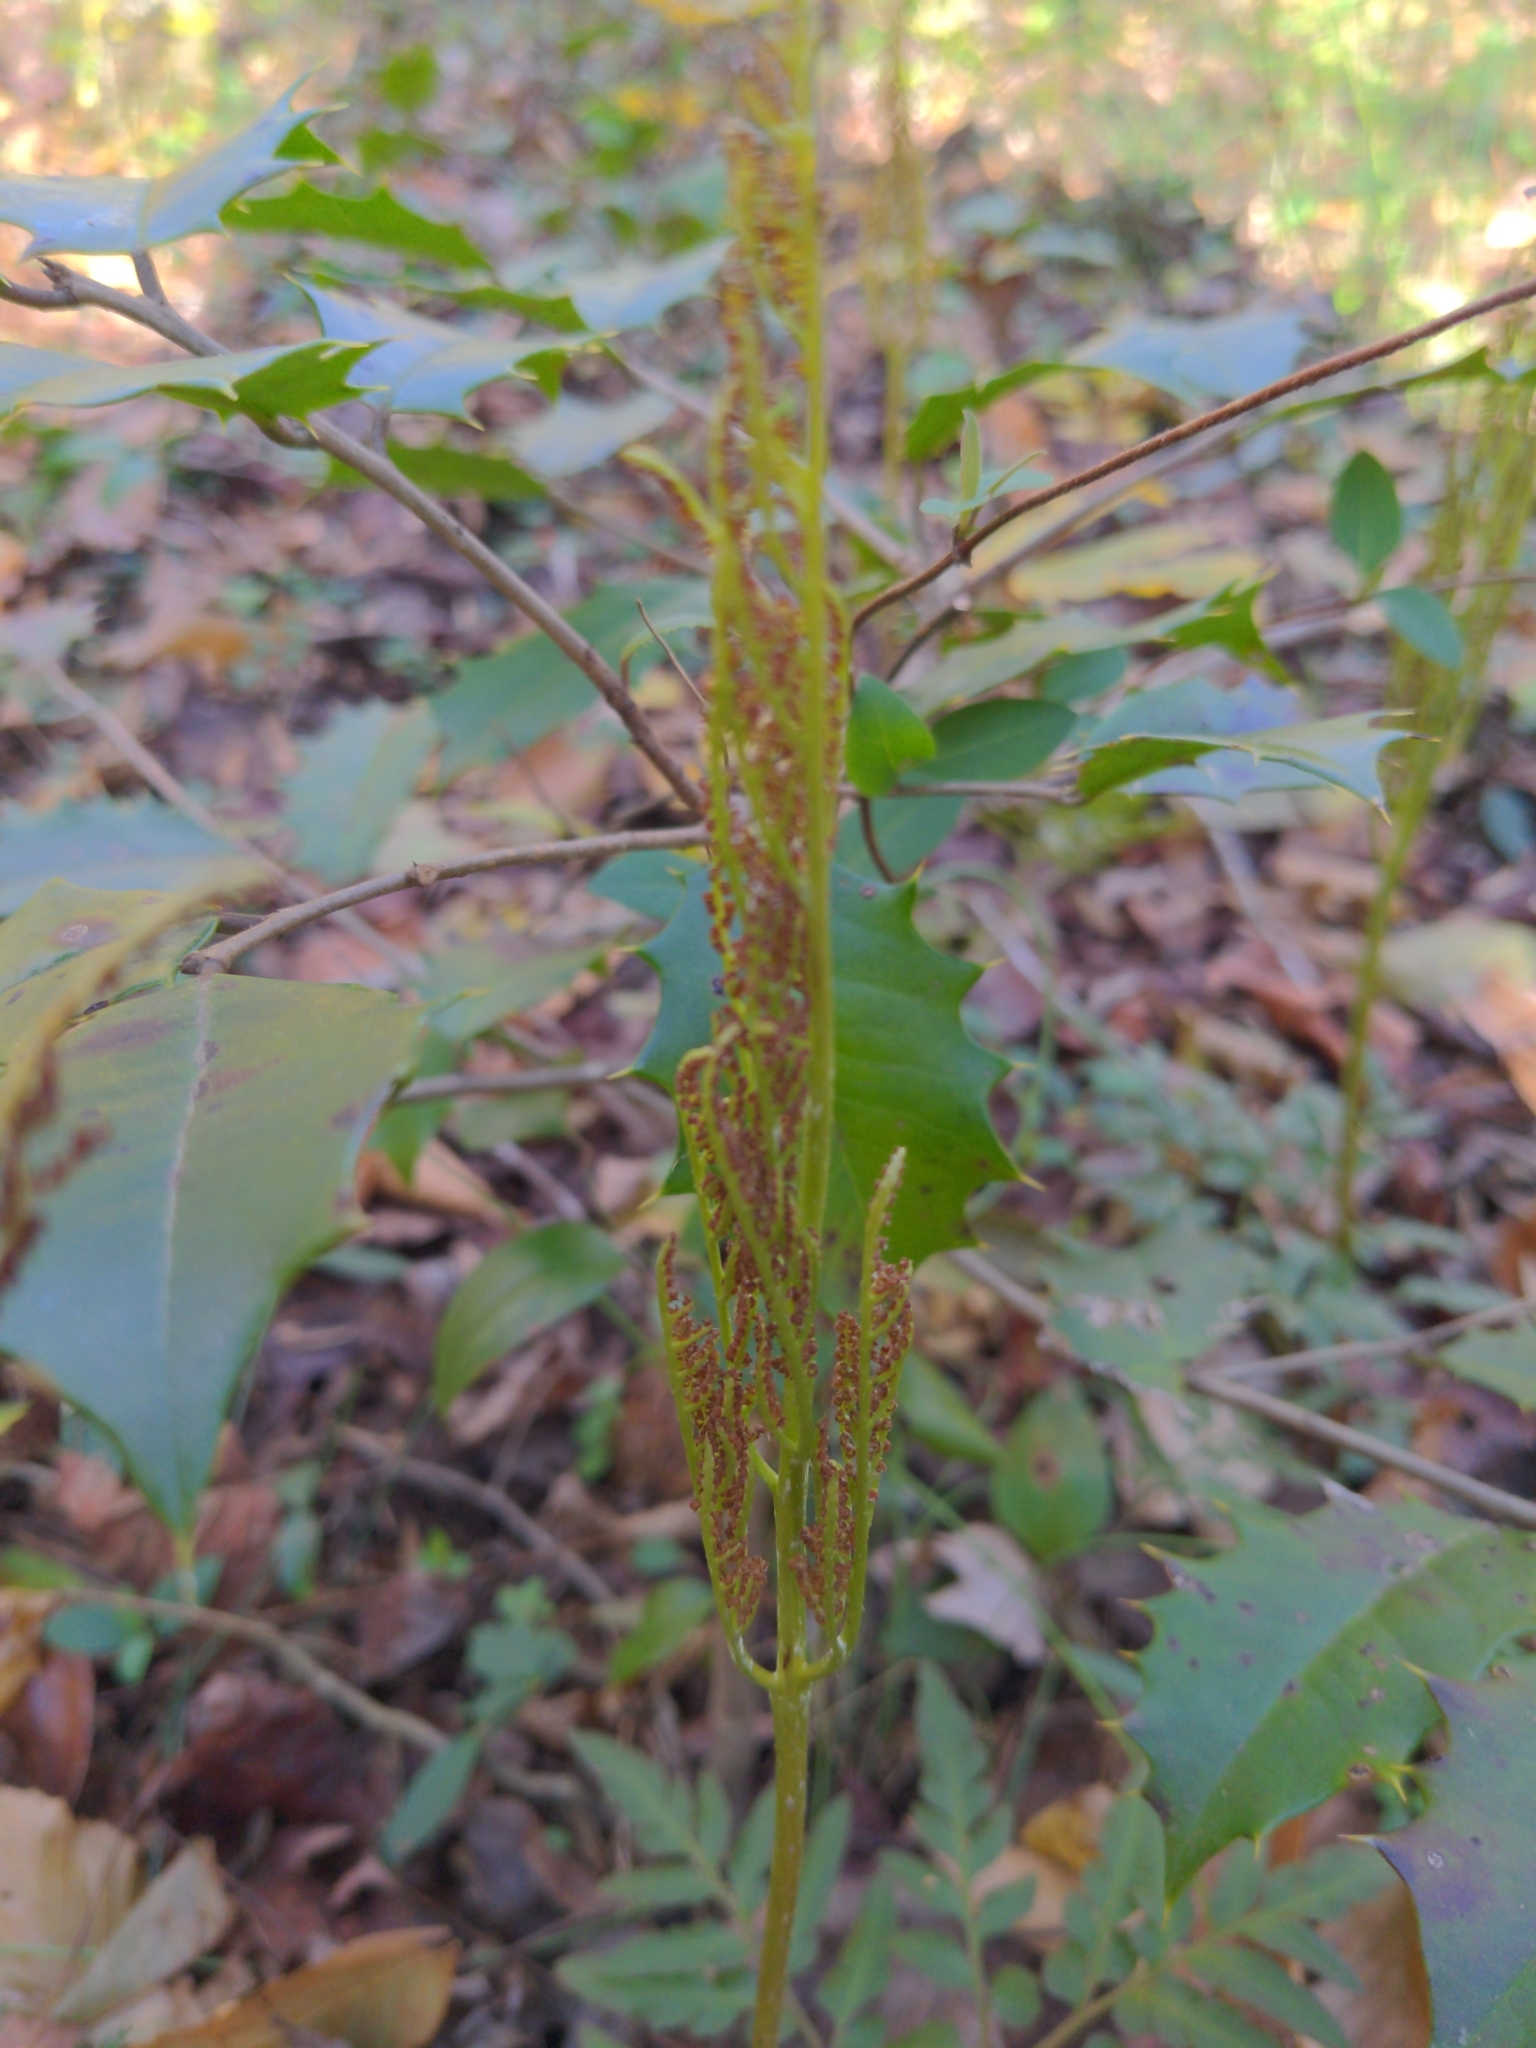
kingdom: Plantae
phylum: Tracheophyta
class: Polypodiopsida
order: Ophioglossales
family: Ophioglossaceae
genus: Sceptridium
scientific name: Sceptridium dissectum
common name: Cut-leaved grapefern
